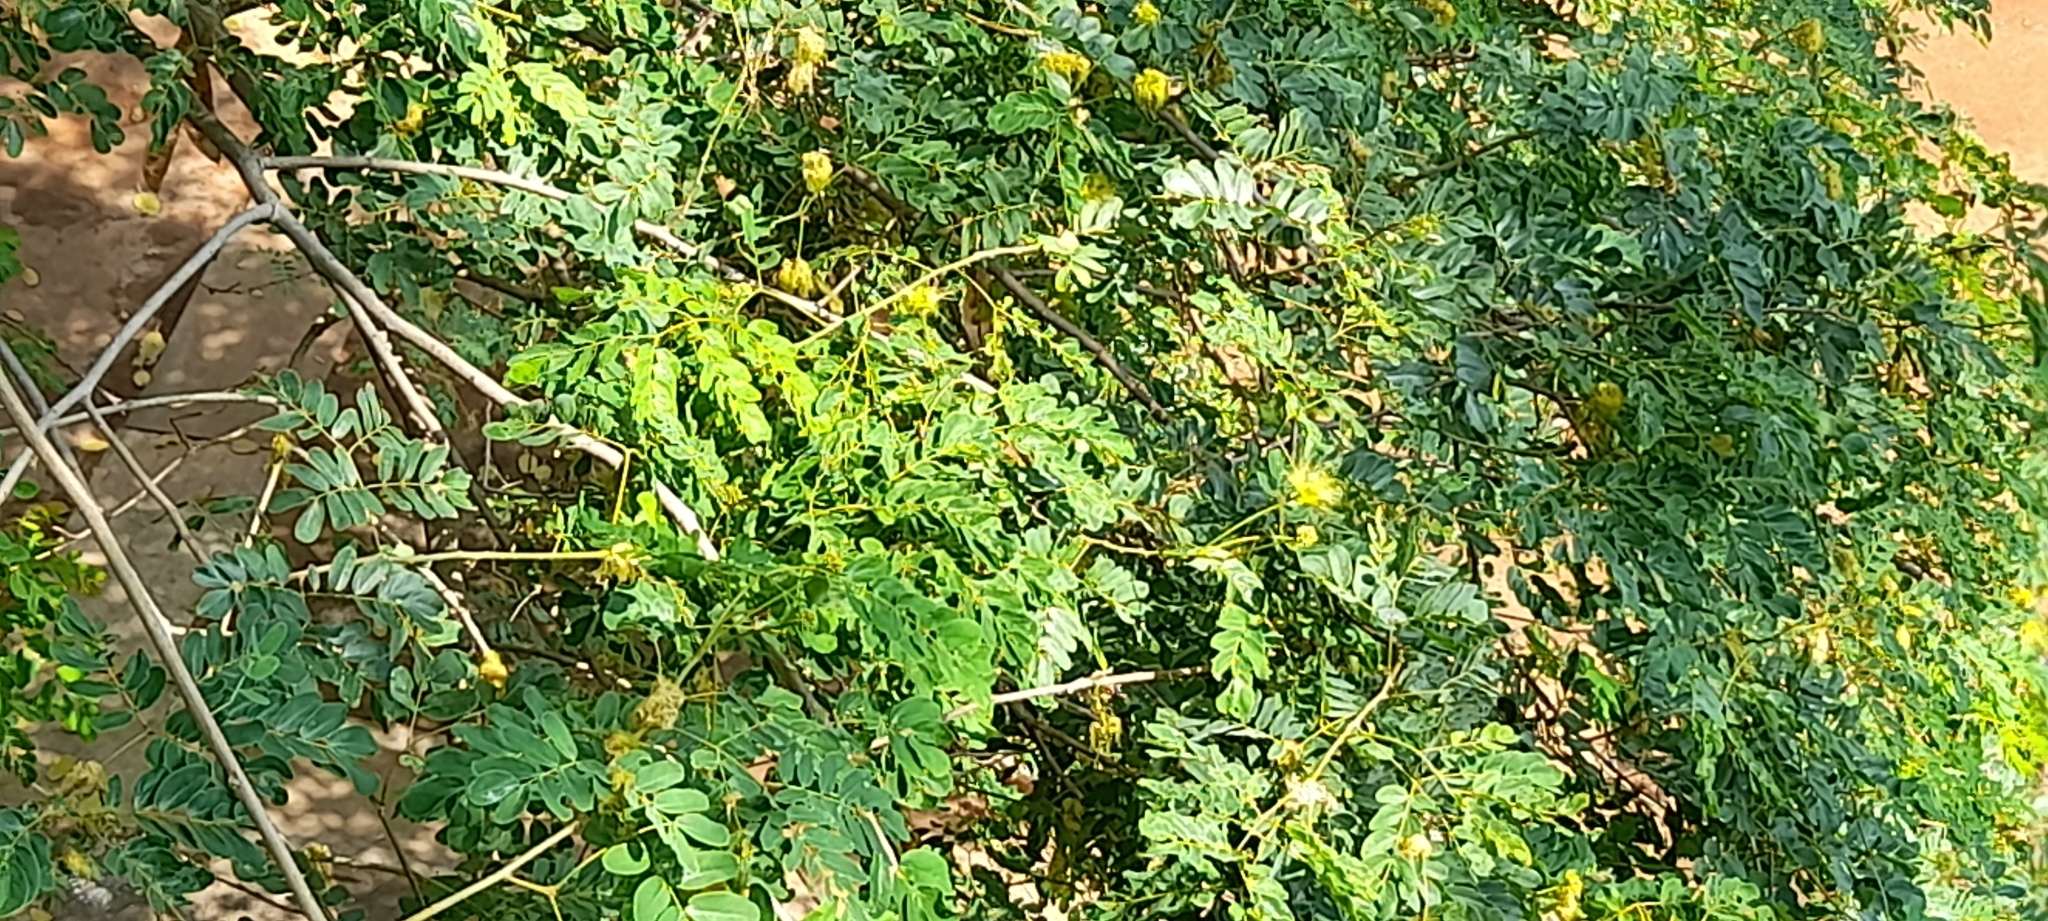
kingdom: Plantae
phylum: Tracheophyta
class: Magnoliopsida
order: Fabales
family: Fabaceae
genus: Albizia
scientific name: Albizia lebbeck
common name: Woman's tongue
